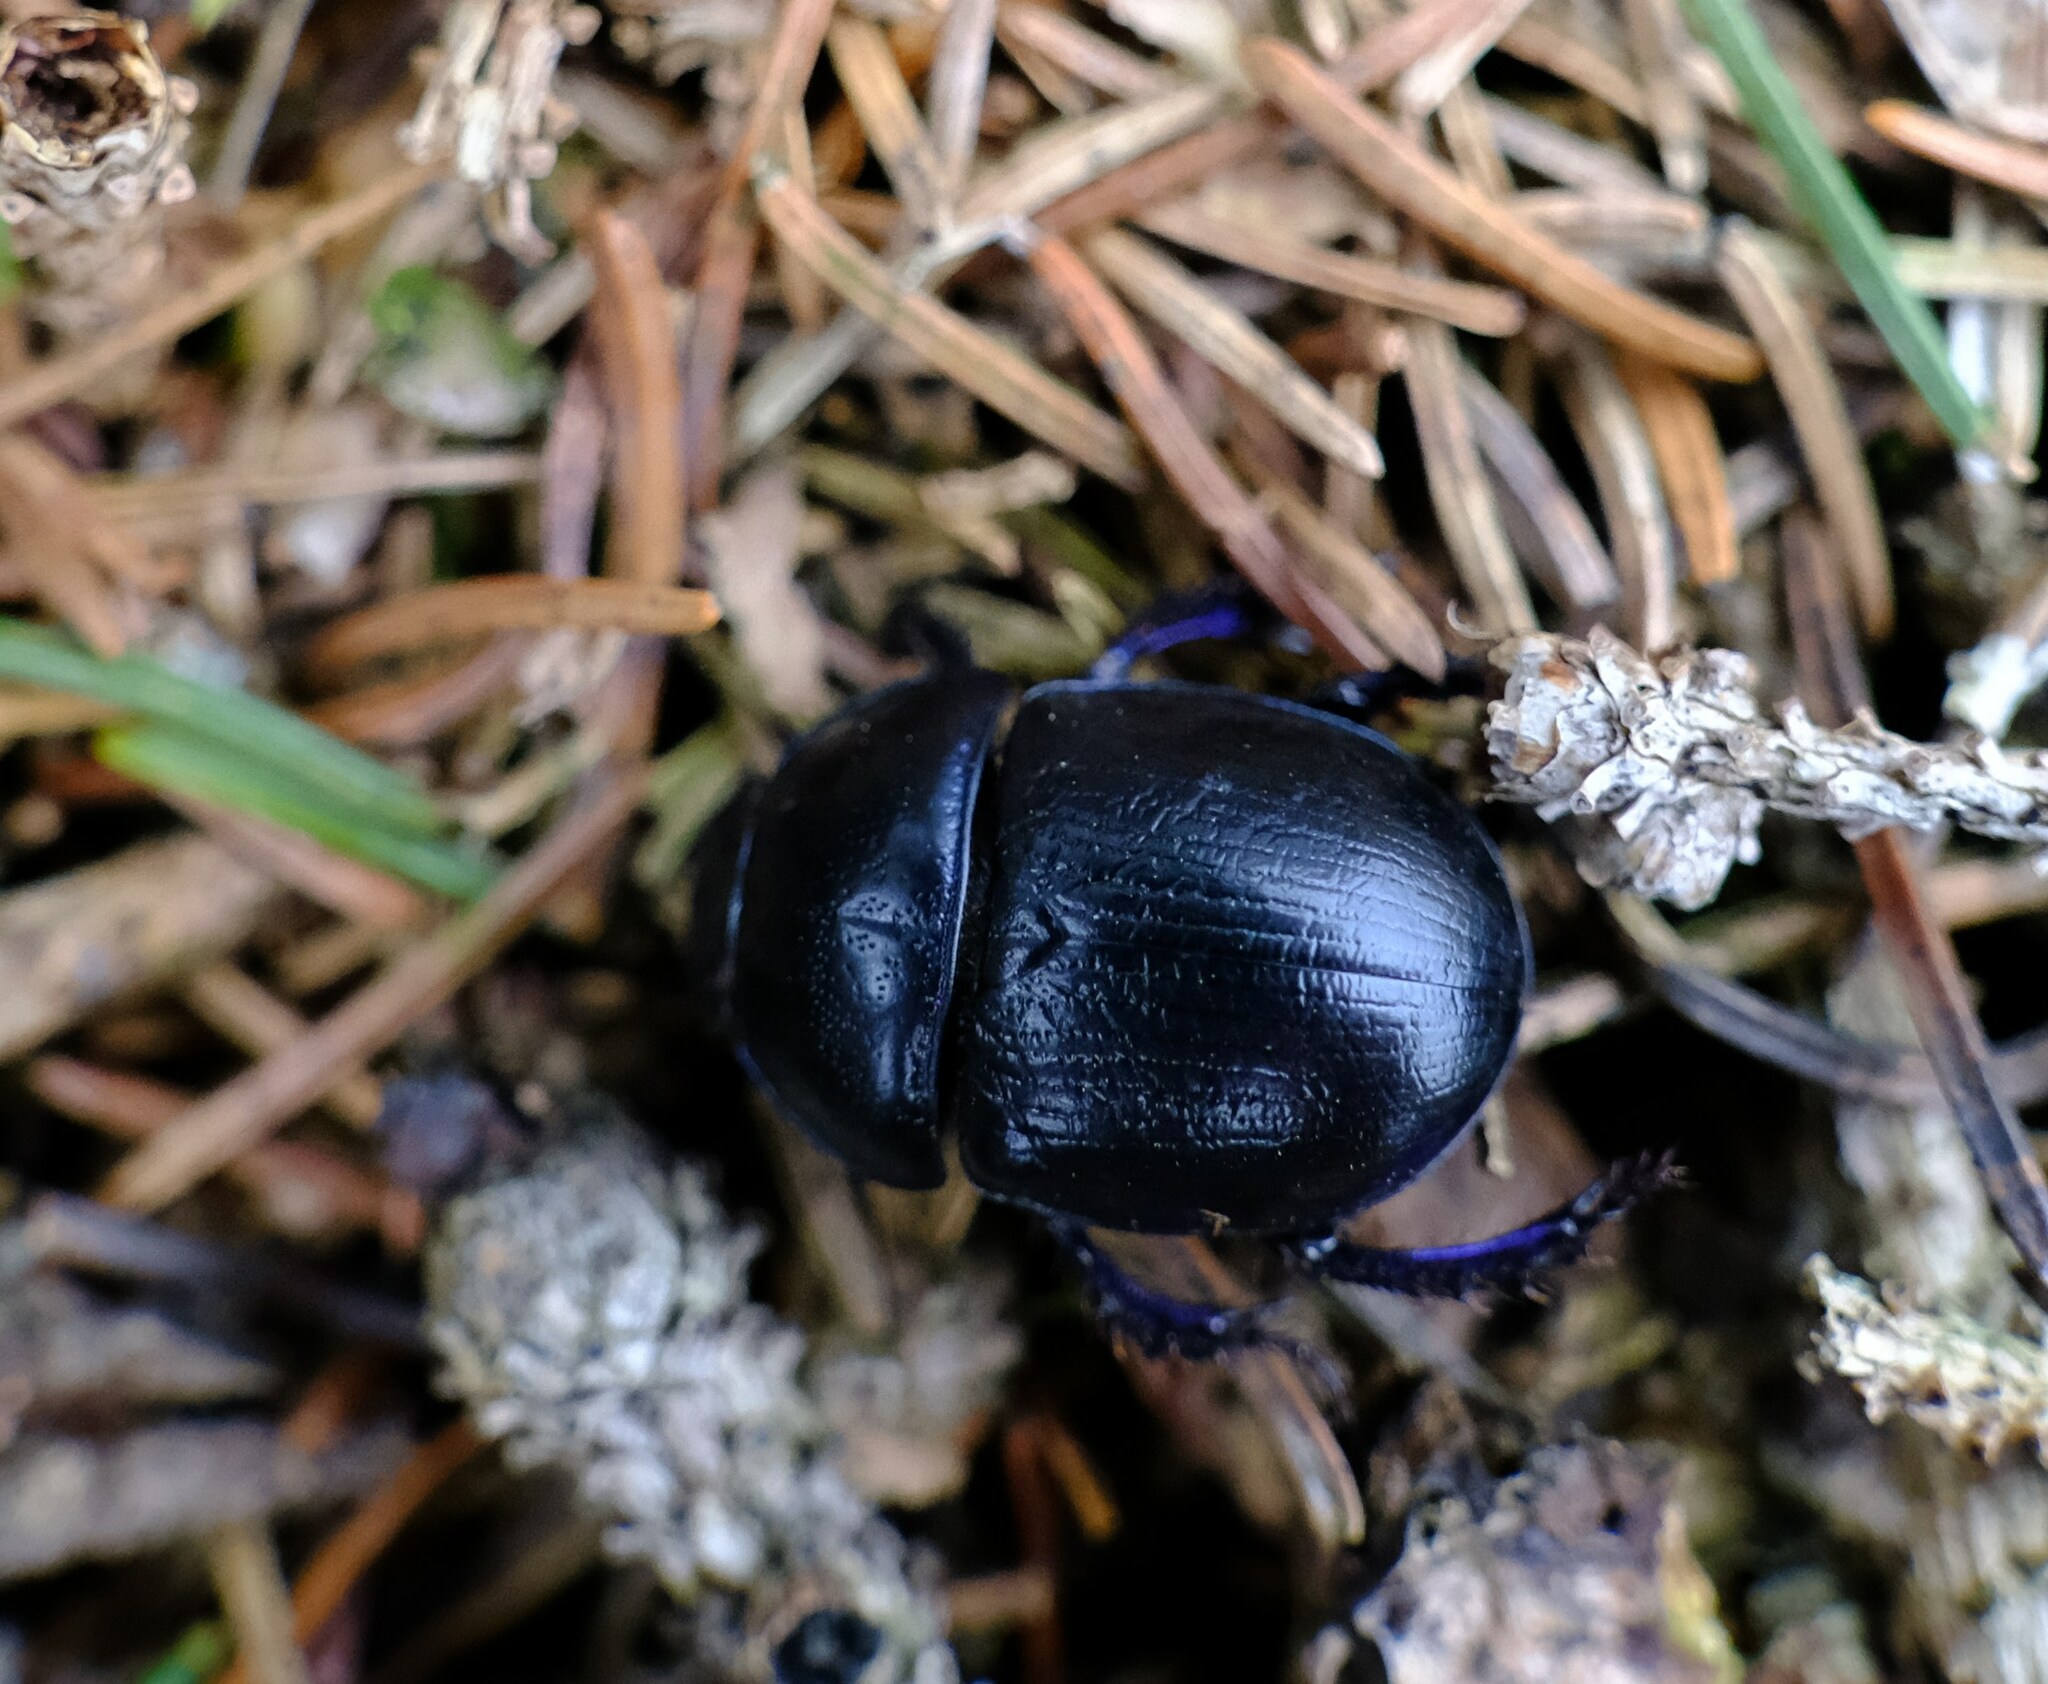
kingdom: Animalia
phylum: Arthropoda
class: Insecta
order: Coleoptera
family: Geotrupidae
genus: Anoplotrupes
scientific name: Anoplotrupes stercorosus
